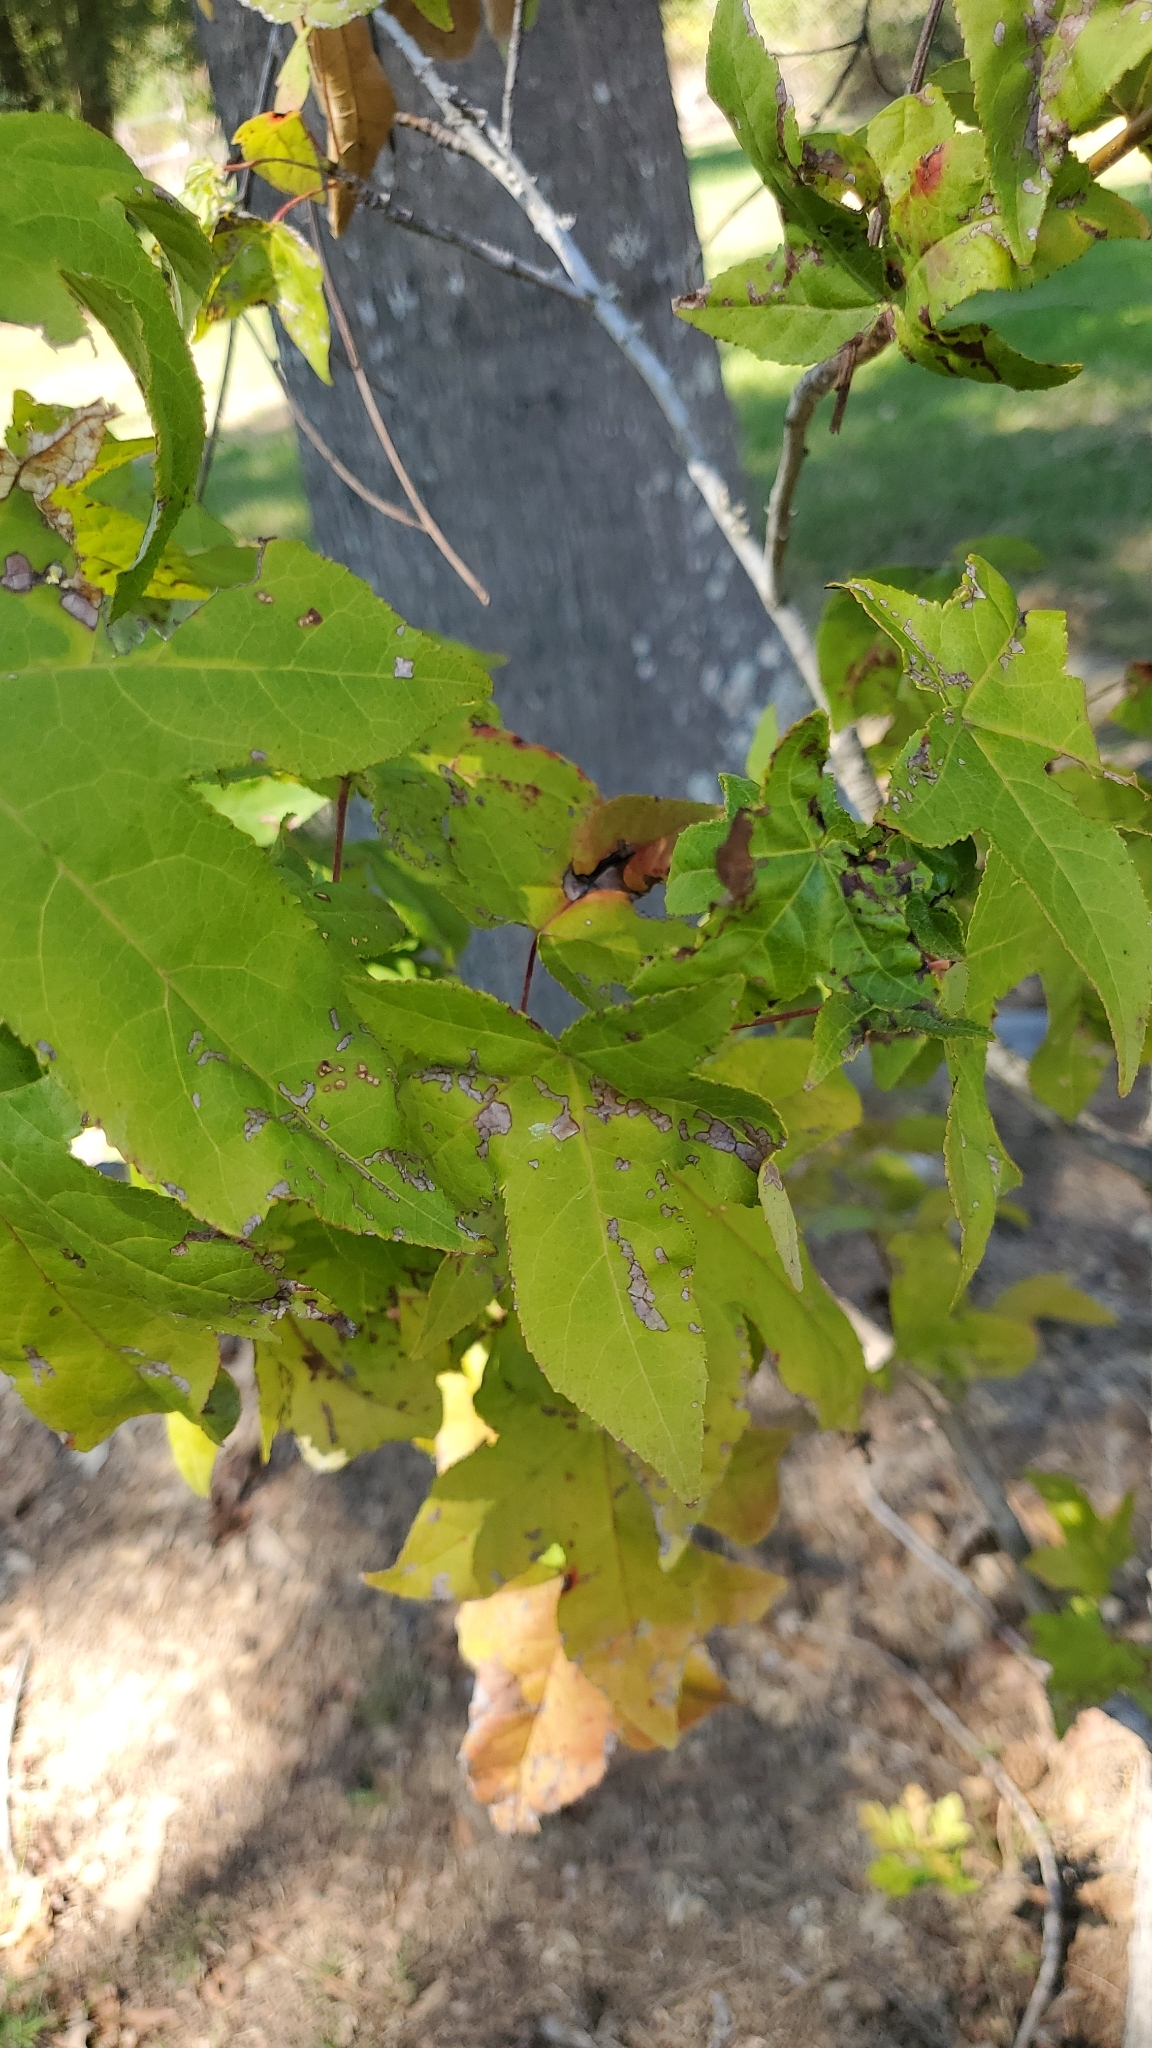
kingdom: Plantae
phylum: Tracheophyta
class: Magnoliopsida
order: Saxifragales
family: Altingiaceae
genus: Liquidambar
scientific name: Liquidambar styraciflua
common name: Sweet gum
